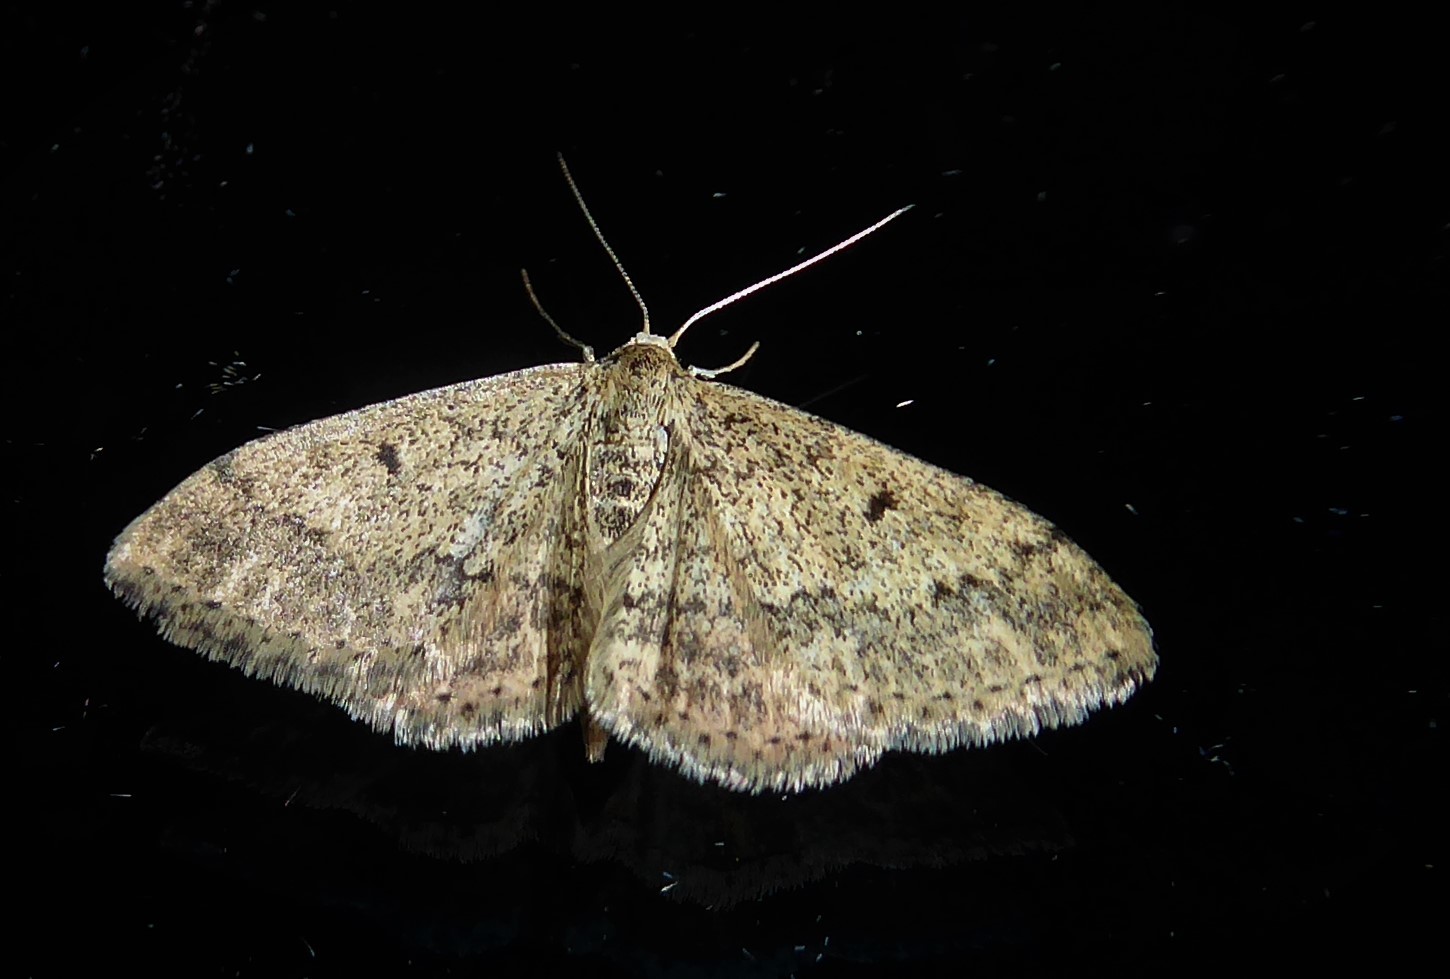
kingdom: Animalia
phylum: Arthropoda
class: Insecta
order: Lepidoptera
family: Geometridae
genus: Scopula
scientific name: Scopula rubraria
